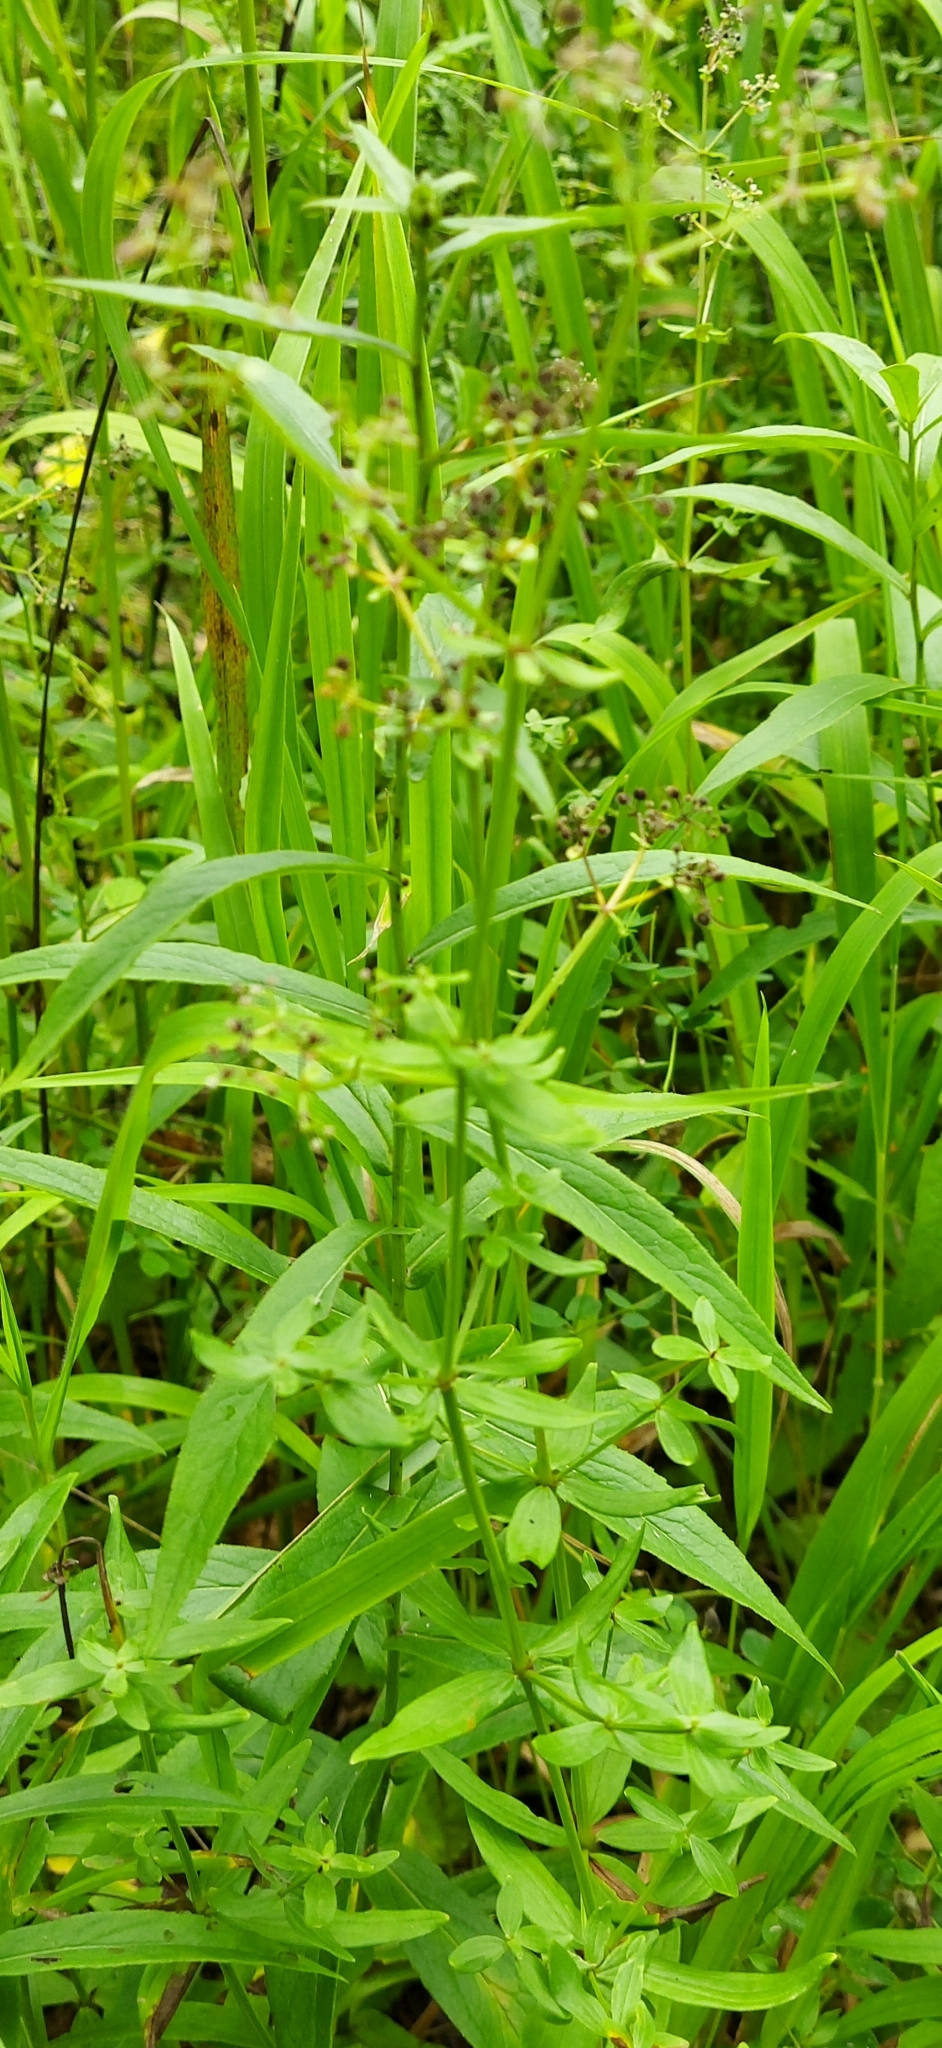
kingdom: Plantae
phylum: Tracheophyta
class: Magnoliopsida
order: Gentianales
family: Rubiaceae
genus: Galium
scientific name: Galium boreale
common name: Northern bedstraw
